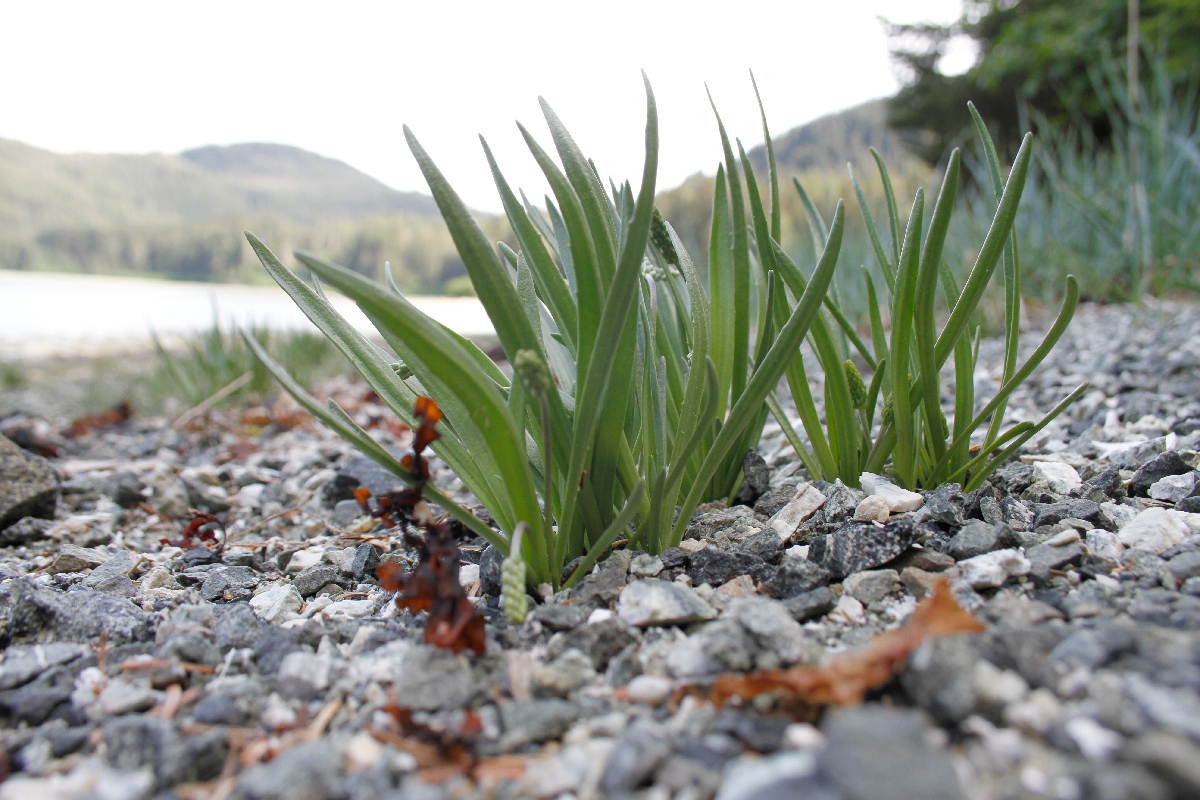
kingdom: Plantae
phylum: Tracheophyta
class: Magnoliopsida
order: Lamiales
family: Plantaginaceae
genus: Plantago
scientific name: Plantago maritima
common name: Sea plantain
